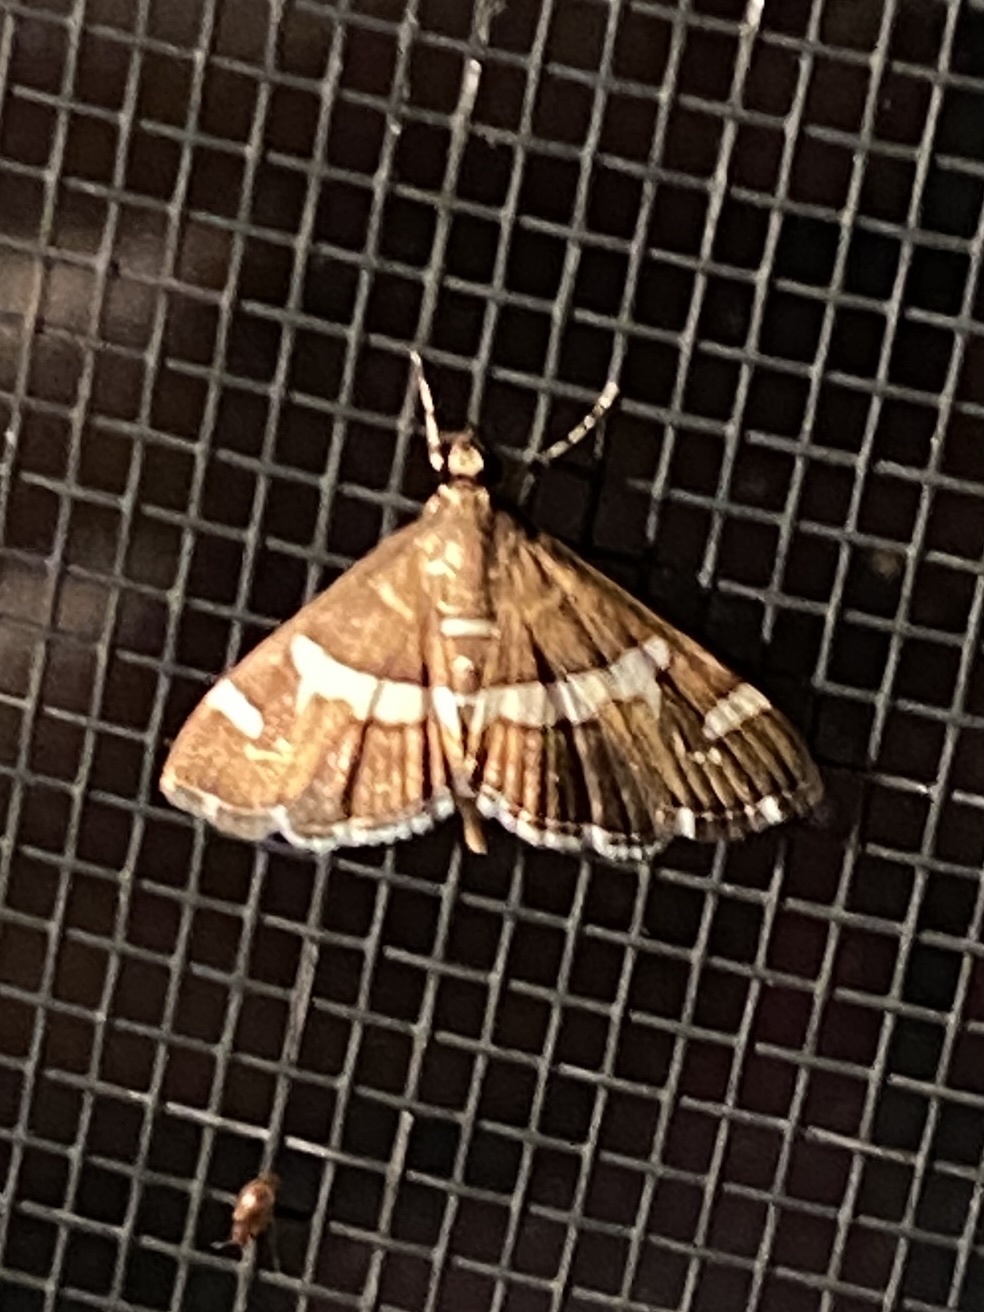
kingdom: Animalia
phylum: Arthropoda
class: Insecta
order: Lepidoptera
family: Crambidae
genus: Spoladea
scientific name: Spoladea recurvalis
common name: Beet webworm moth
